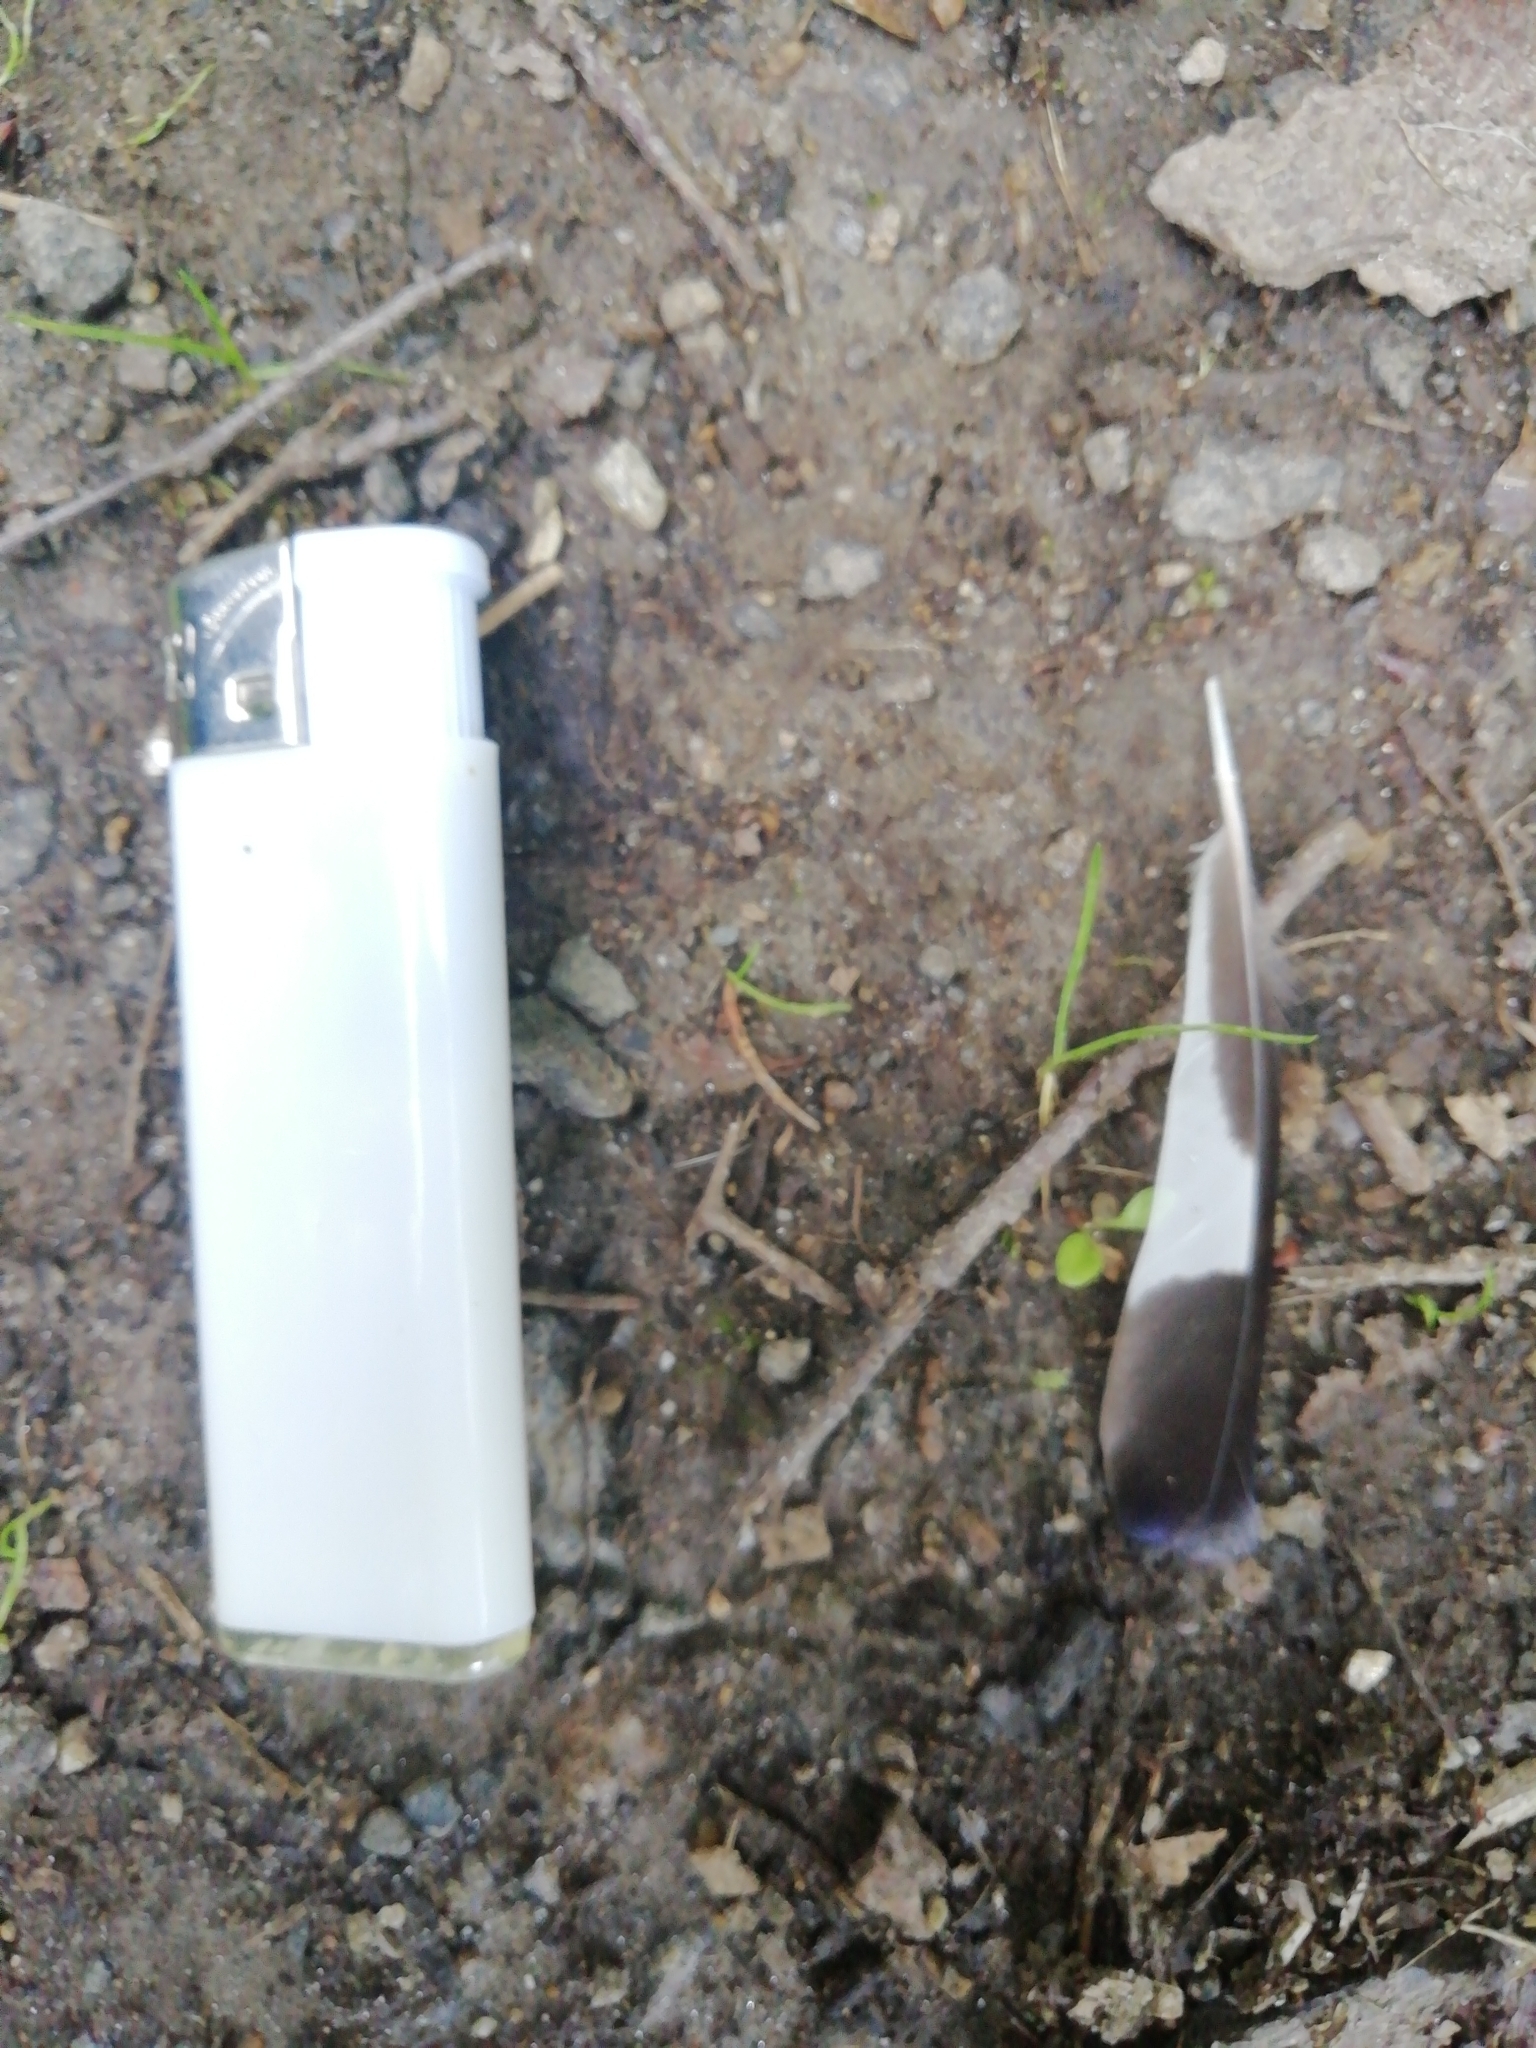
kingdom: Animalia
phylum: Chordata
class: Aves
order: Passeriformes
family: Fringillidae
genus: Coccothraustes
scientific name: Coccothraustes coccothraustes
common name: Hawfinch
